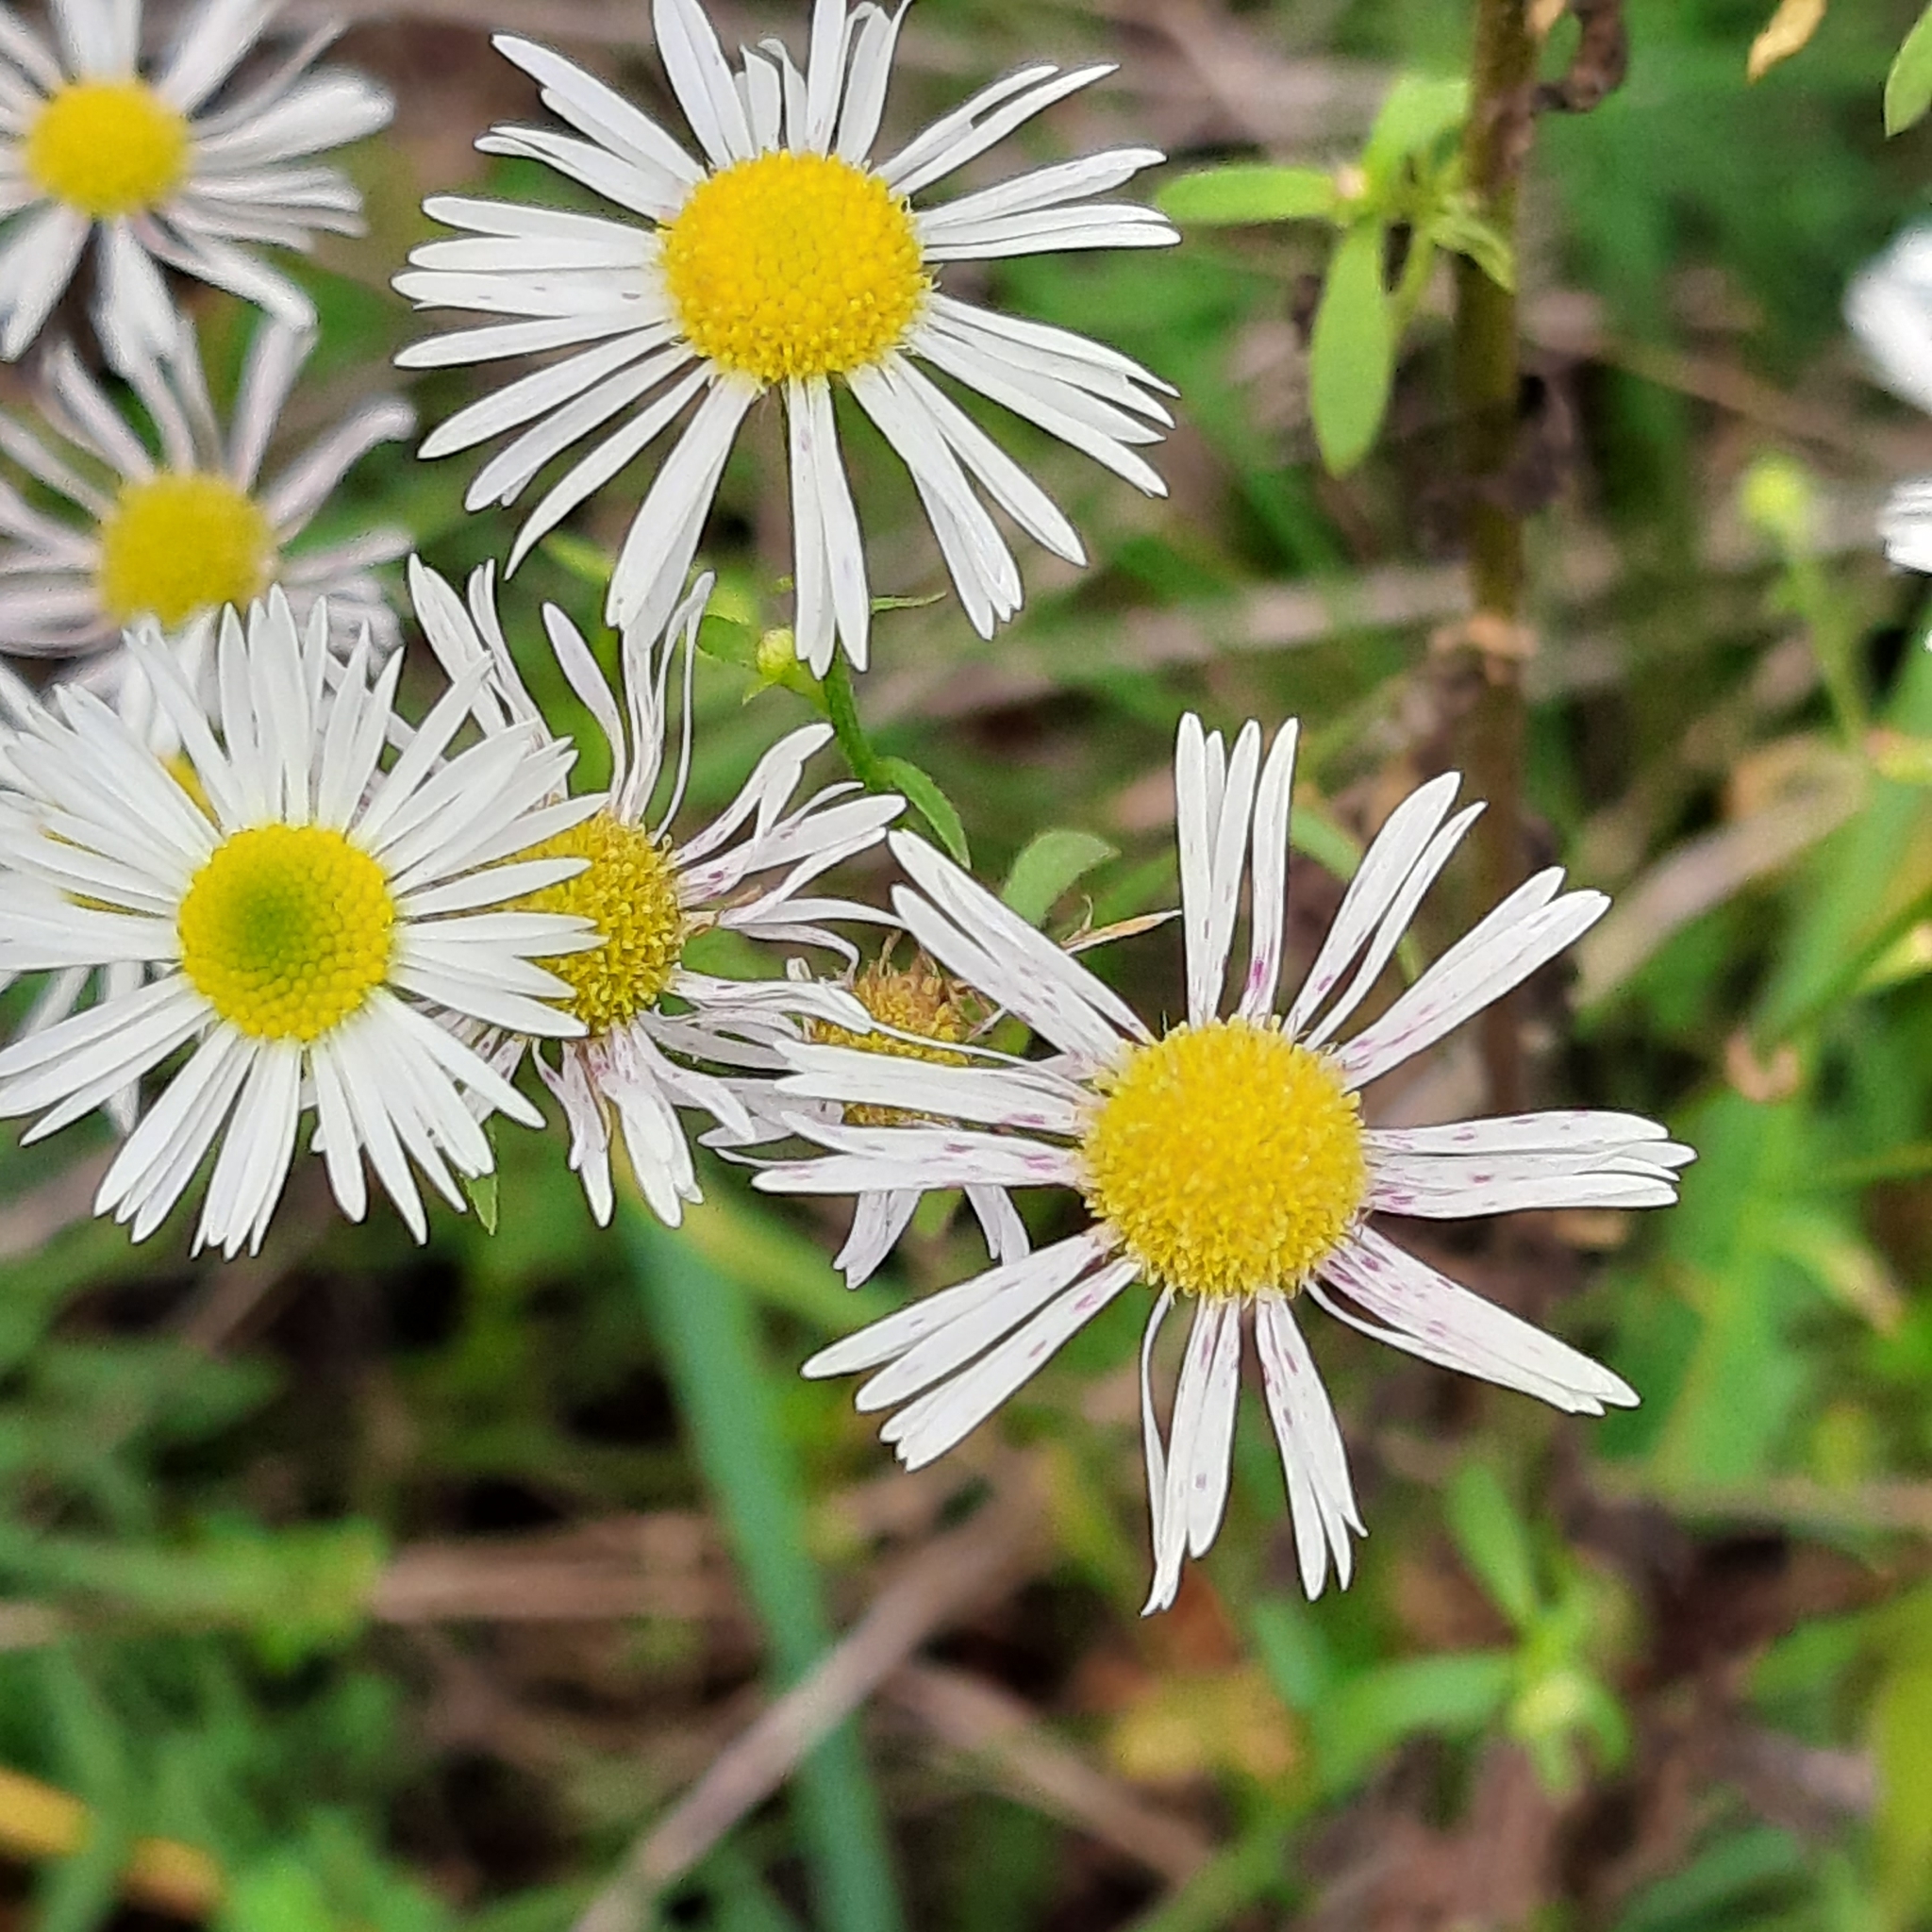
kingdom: Plantae
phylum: Tracheophyta
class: Magnoliopsida
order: Asterales
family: Asteraceae
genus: Erigeron
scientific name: Erigeron annuus
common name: Tall fleabane
